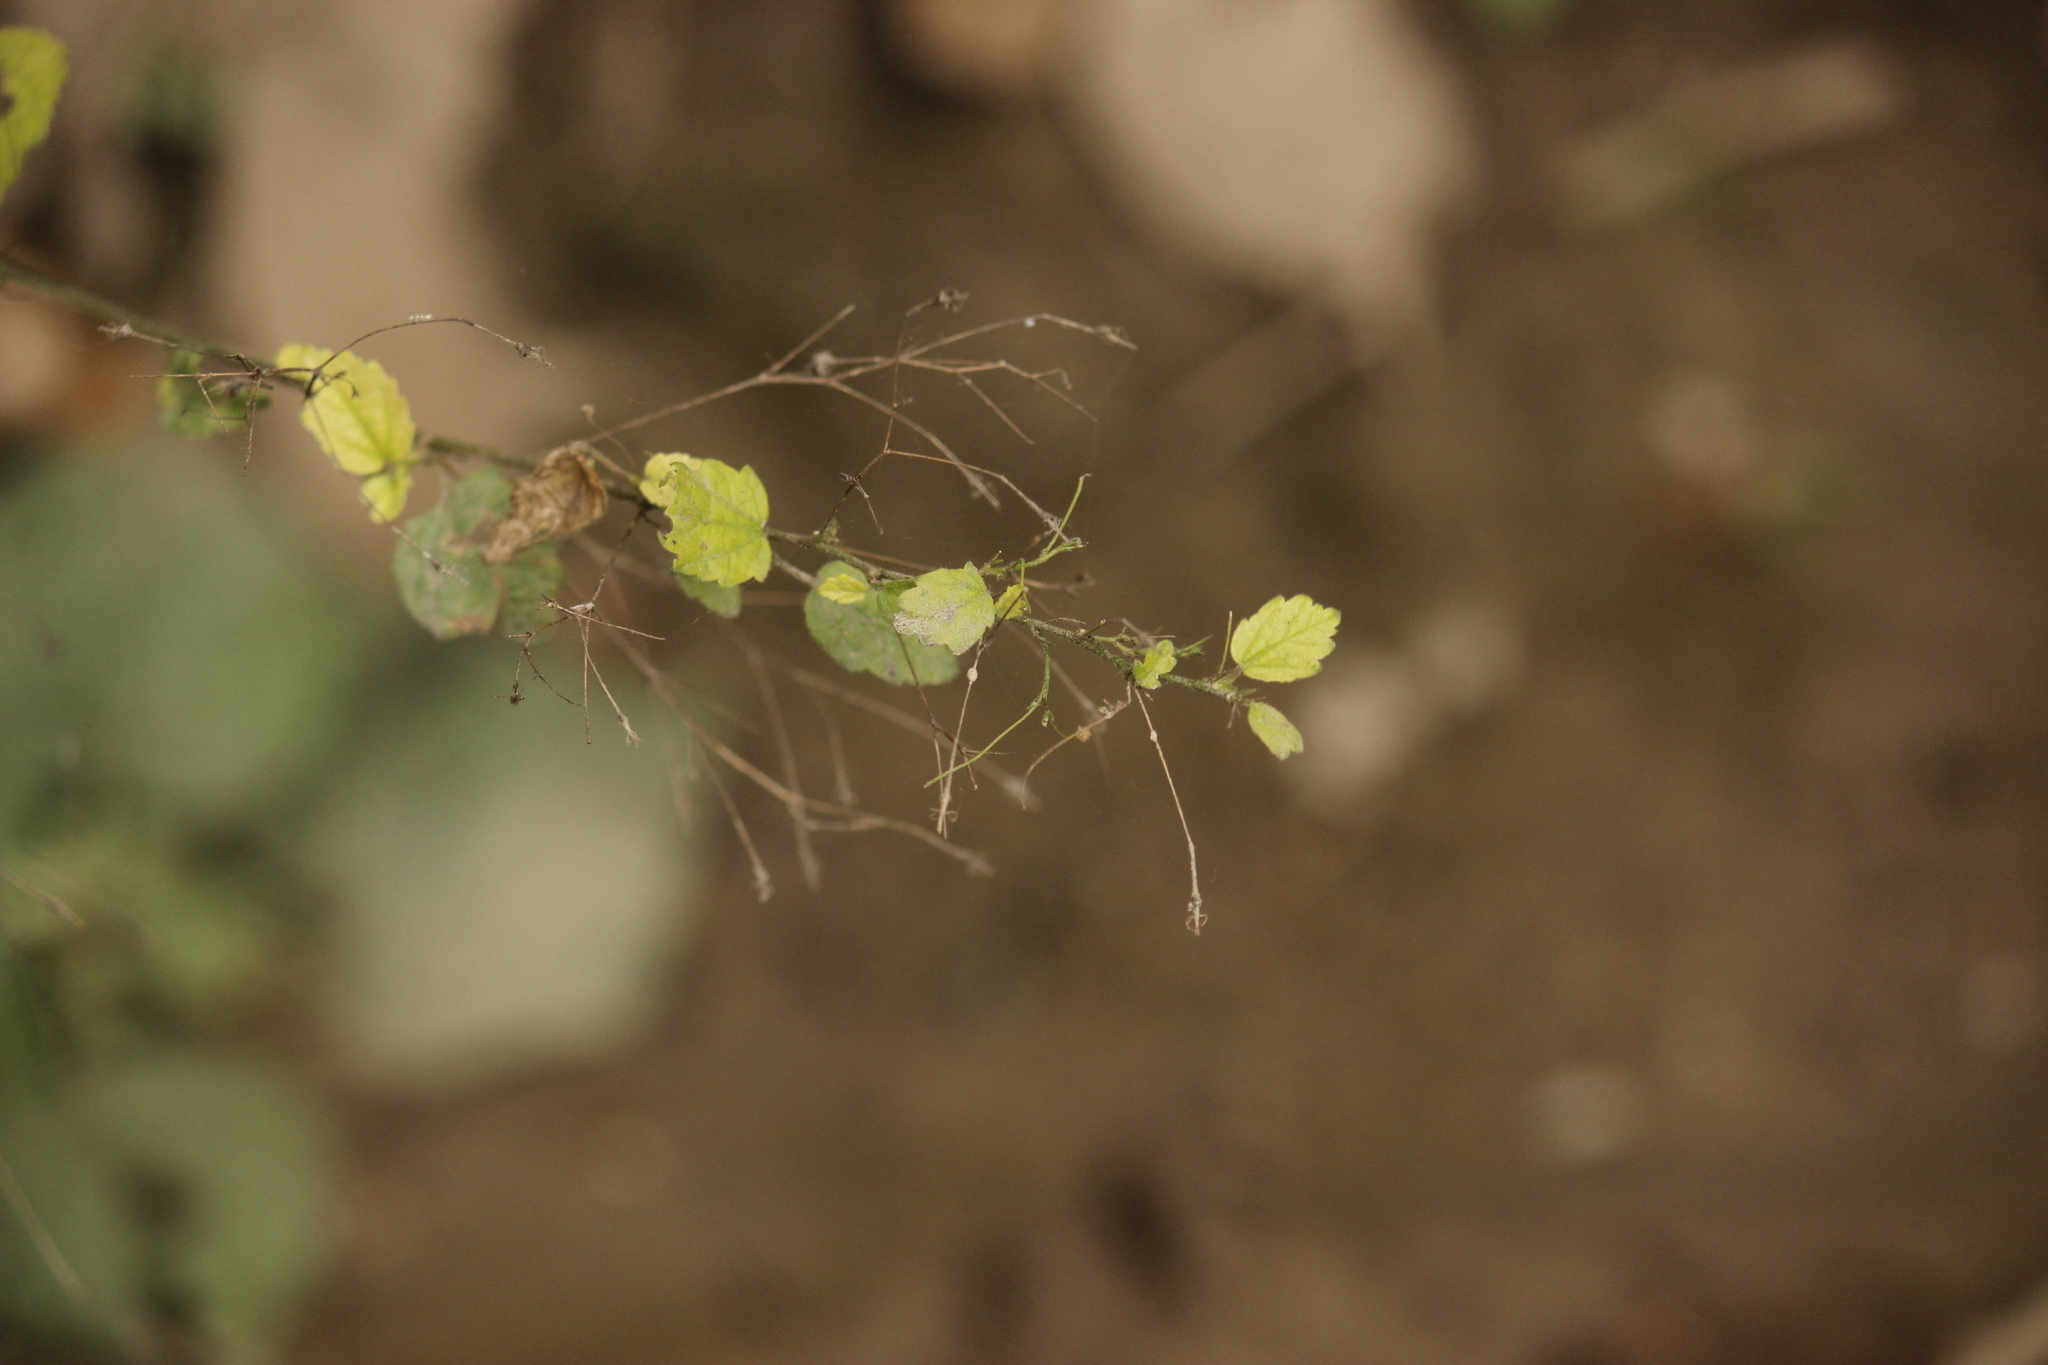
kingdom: Plantae
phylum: Tracheophyta
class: Magnoliopsida
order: Malvales
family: Malvaceae
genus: Sidastrum
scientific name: Sidastrum paniculatum
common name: Panicled sandmallow
